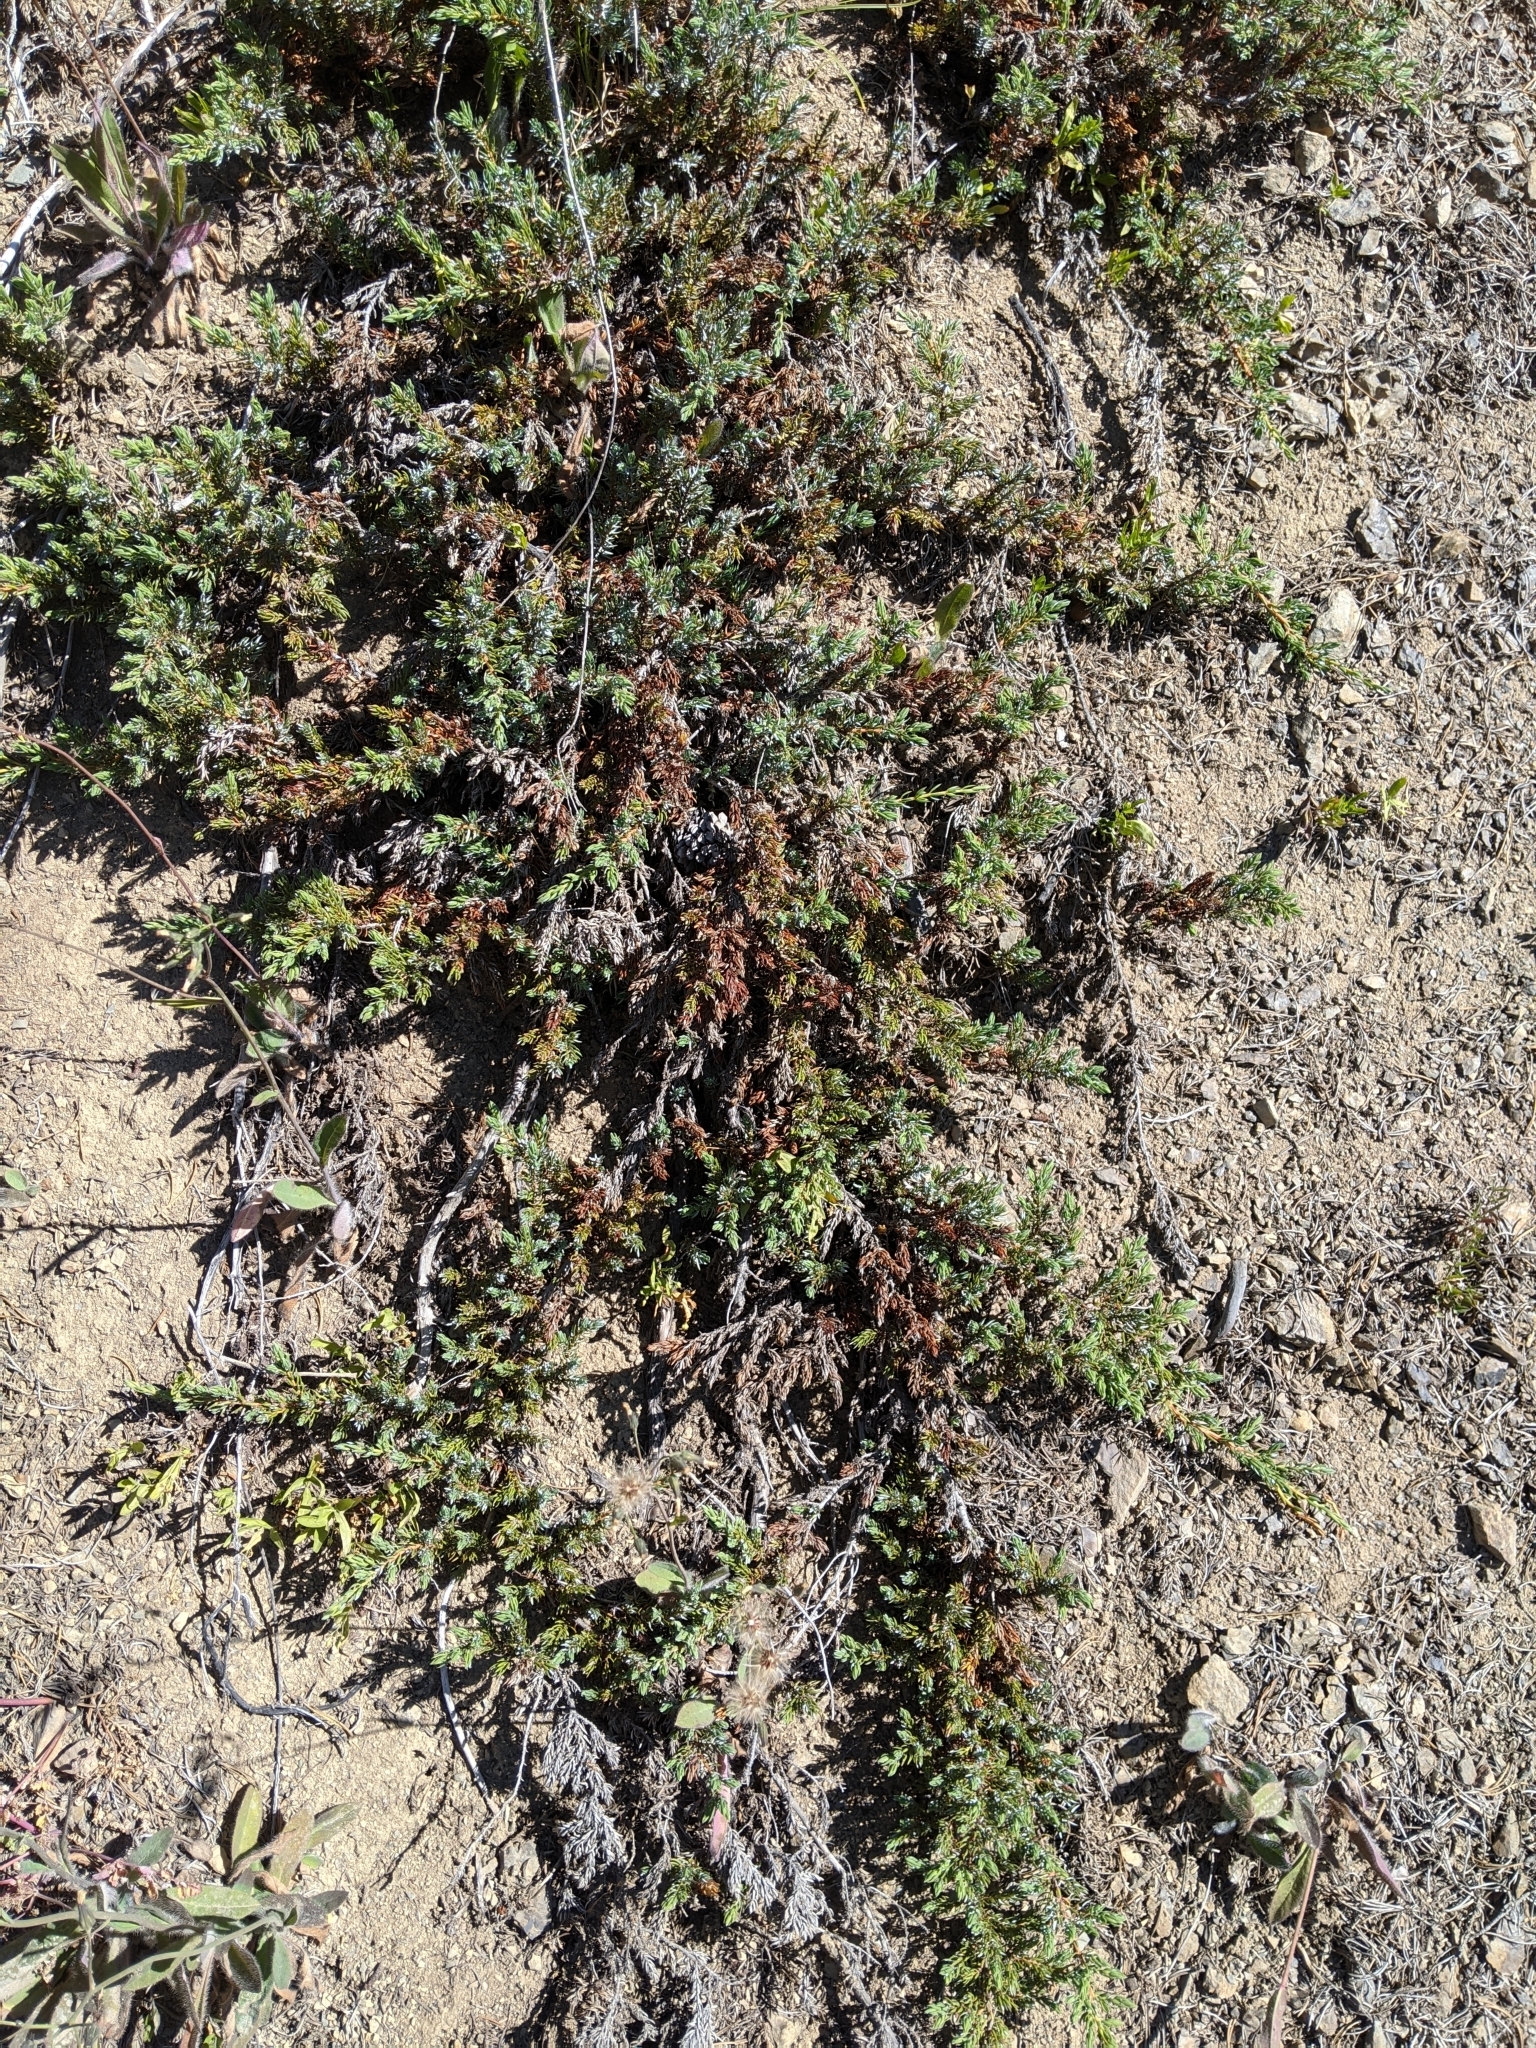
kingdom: Plantae
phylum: Tracheophyta
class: Pinopsida
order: Pinales
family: Cupressaceae
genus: Juniperus
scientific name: Juniperus communis
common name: Common juniper
